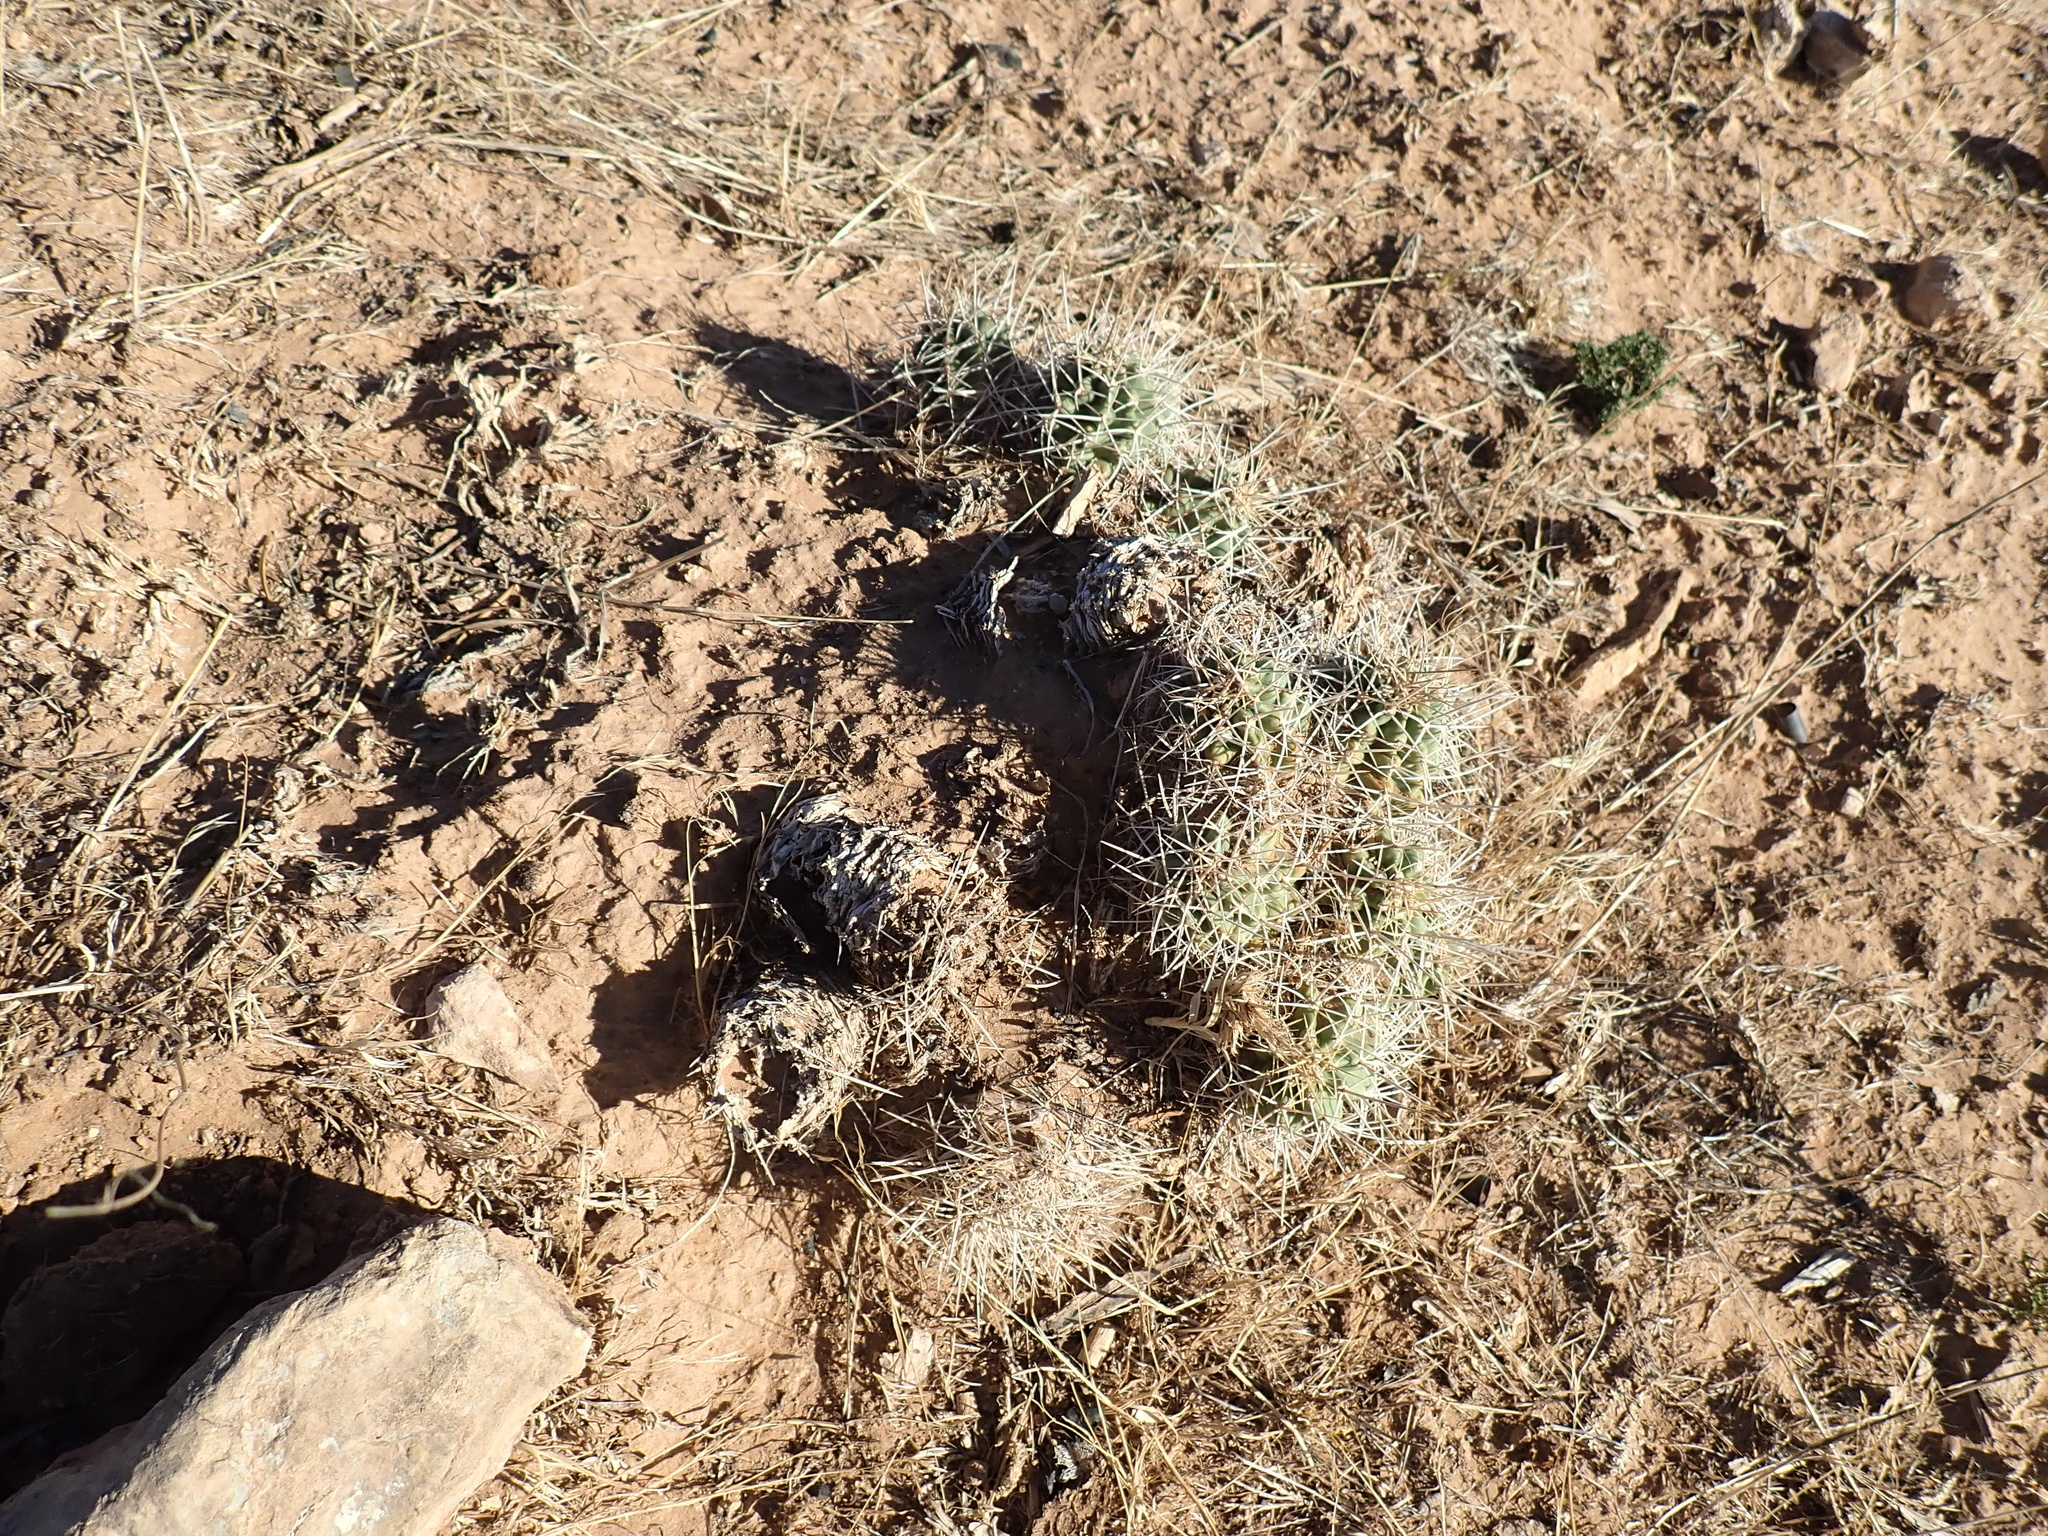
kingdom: Plantae
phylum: Tracheophyta
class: Magnoliopsida
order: Caryophyllales
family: Cactaceae
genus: Echinocereus
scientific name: Echinocereus triglochidiatus
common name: Claretcup hedgehog
